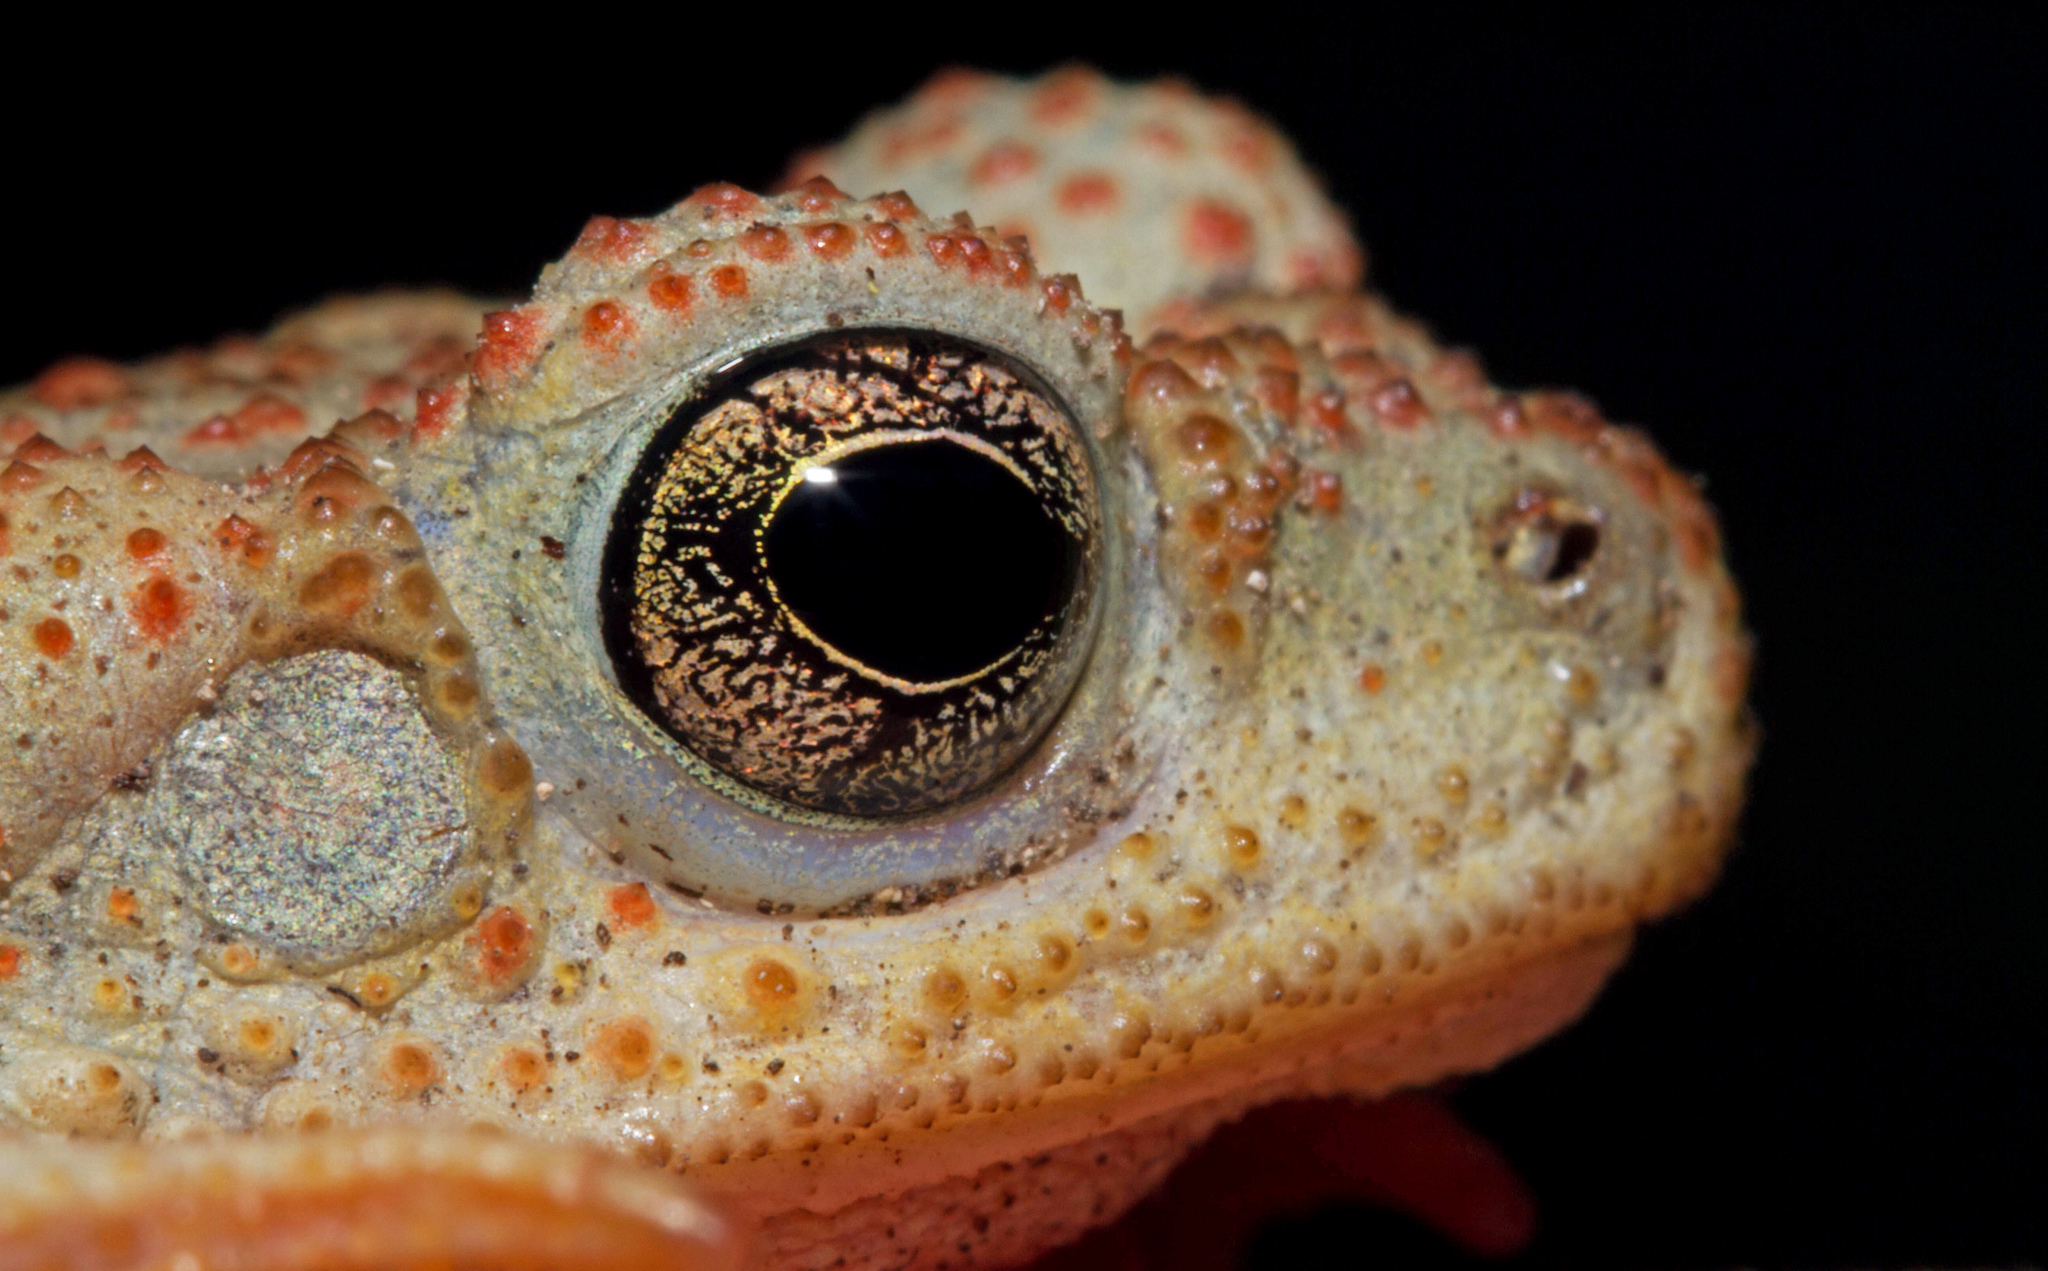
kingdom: Animalia
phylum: Chordata
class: Amphibia
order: Anura
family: Bufonidae
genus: Anaxyrus
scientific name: Anaxyrus punctatus
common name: Red-spotted toad
